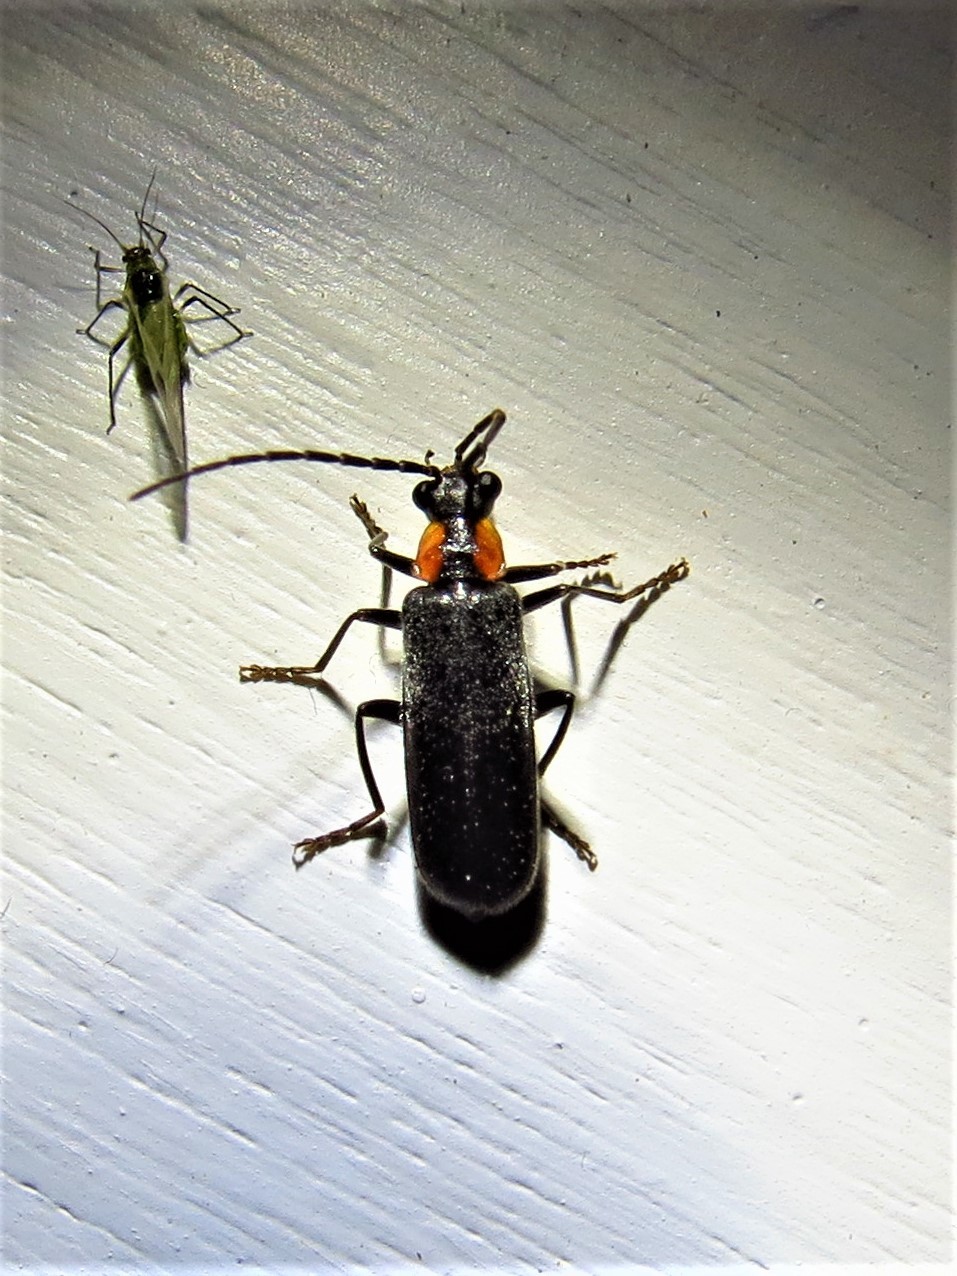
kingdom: Animalia
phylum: Arthropoda
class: Insecta
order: Coleoptera
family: Cantharidae
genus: Rhagonycha
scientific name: Rhagonycha lineola
